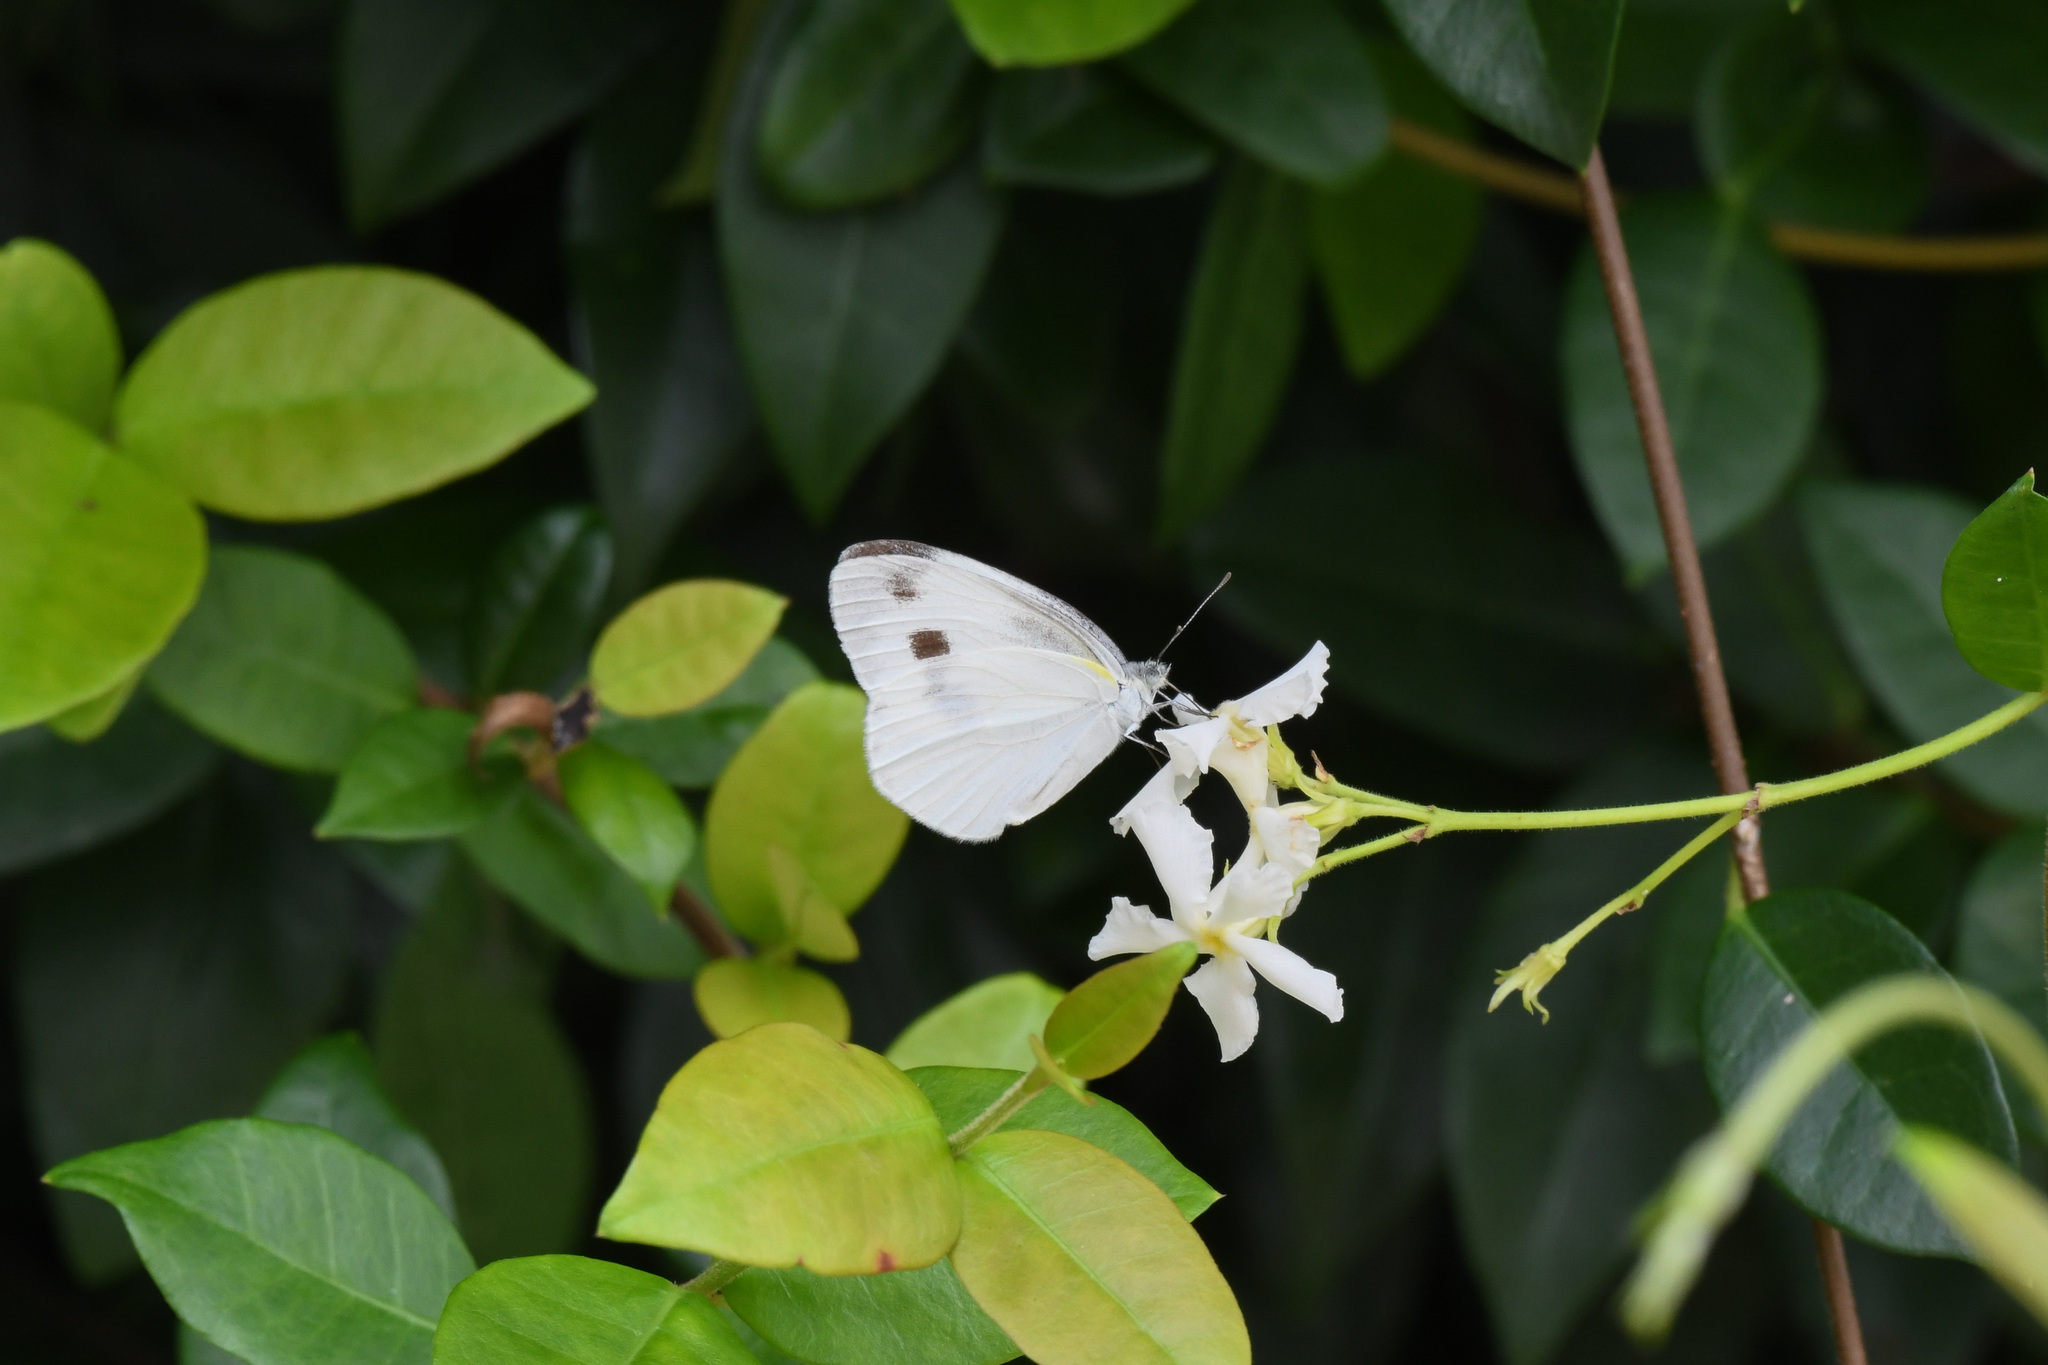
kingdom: Animalia
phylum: Arthropoda
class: Insecta
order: Lepidoptera
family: Pieridae
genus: Pieris
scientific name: Pieris rapae
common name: Small white
